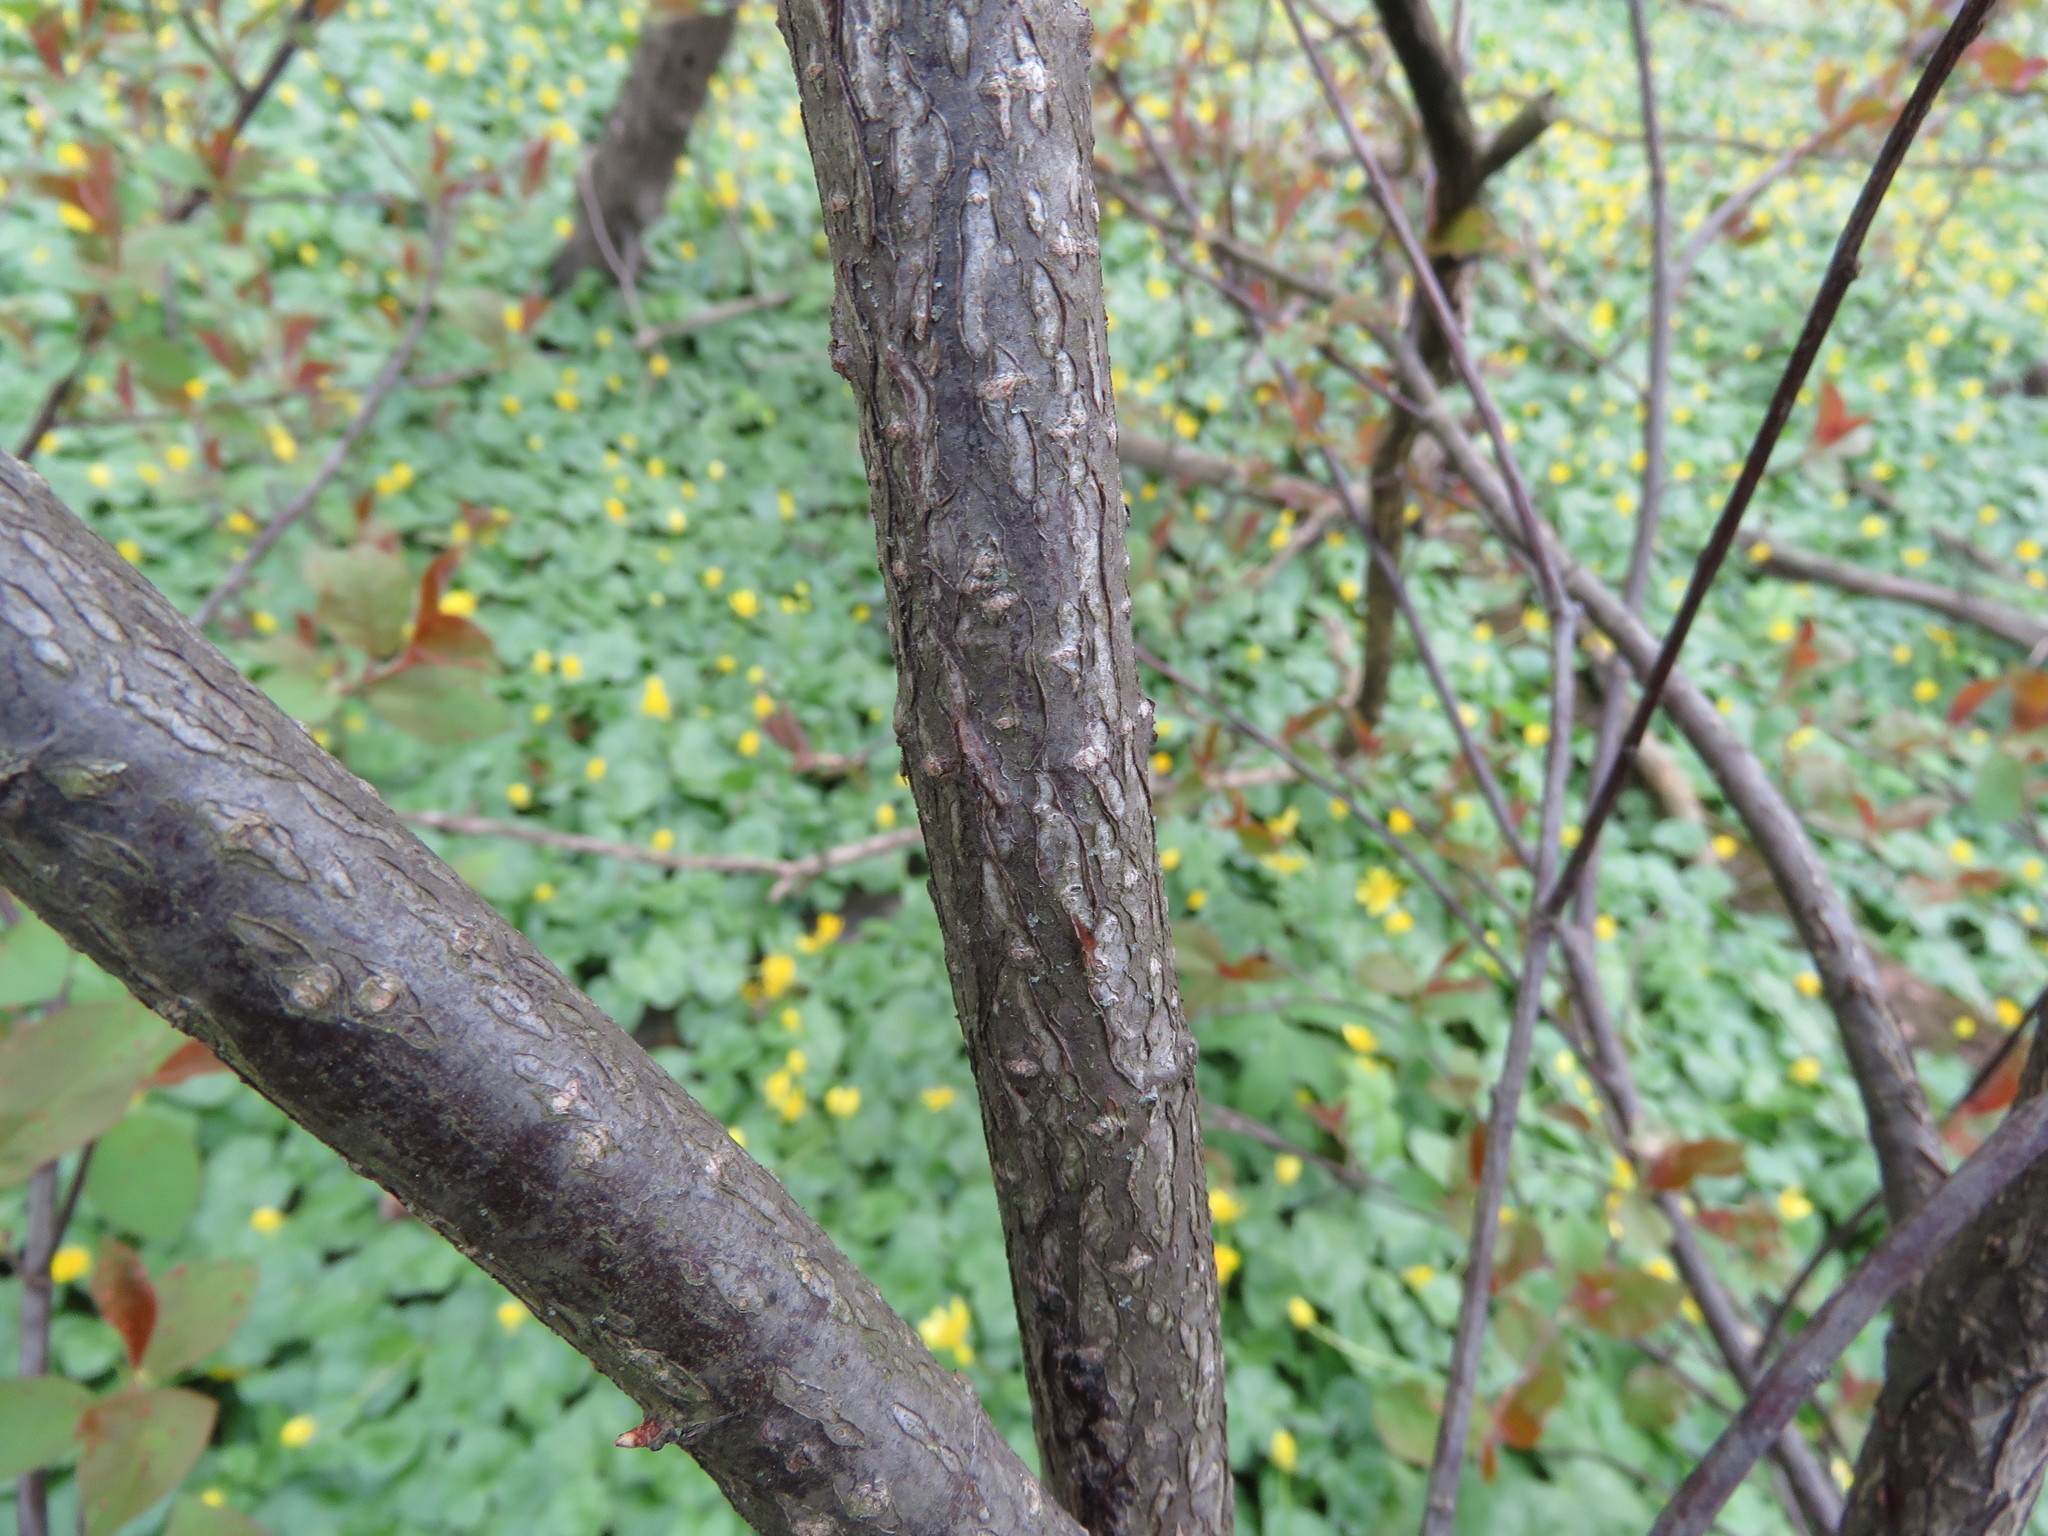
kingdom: Plantae
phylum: Tracheophyta
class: Magnoliopsida
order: Rosales
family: Rosaceae
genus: Prunus
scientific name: Prunus virginiana
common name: Chokecherry
